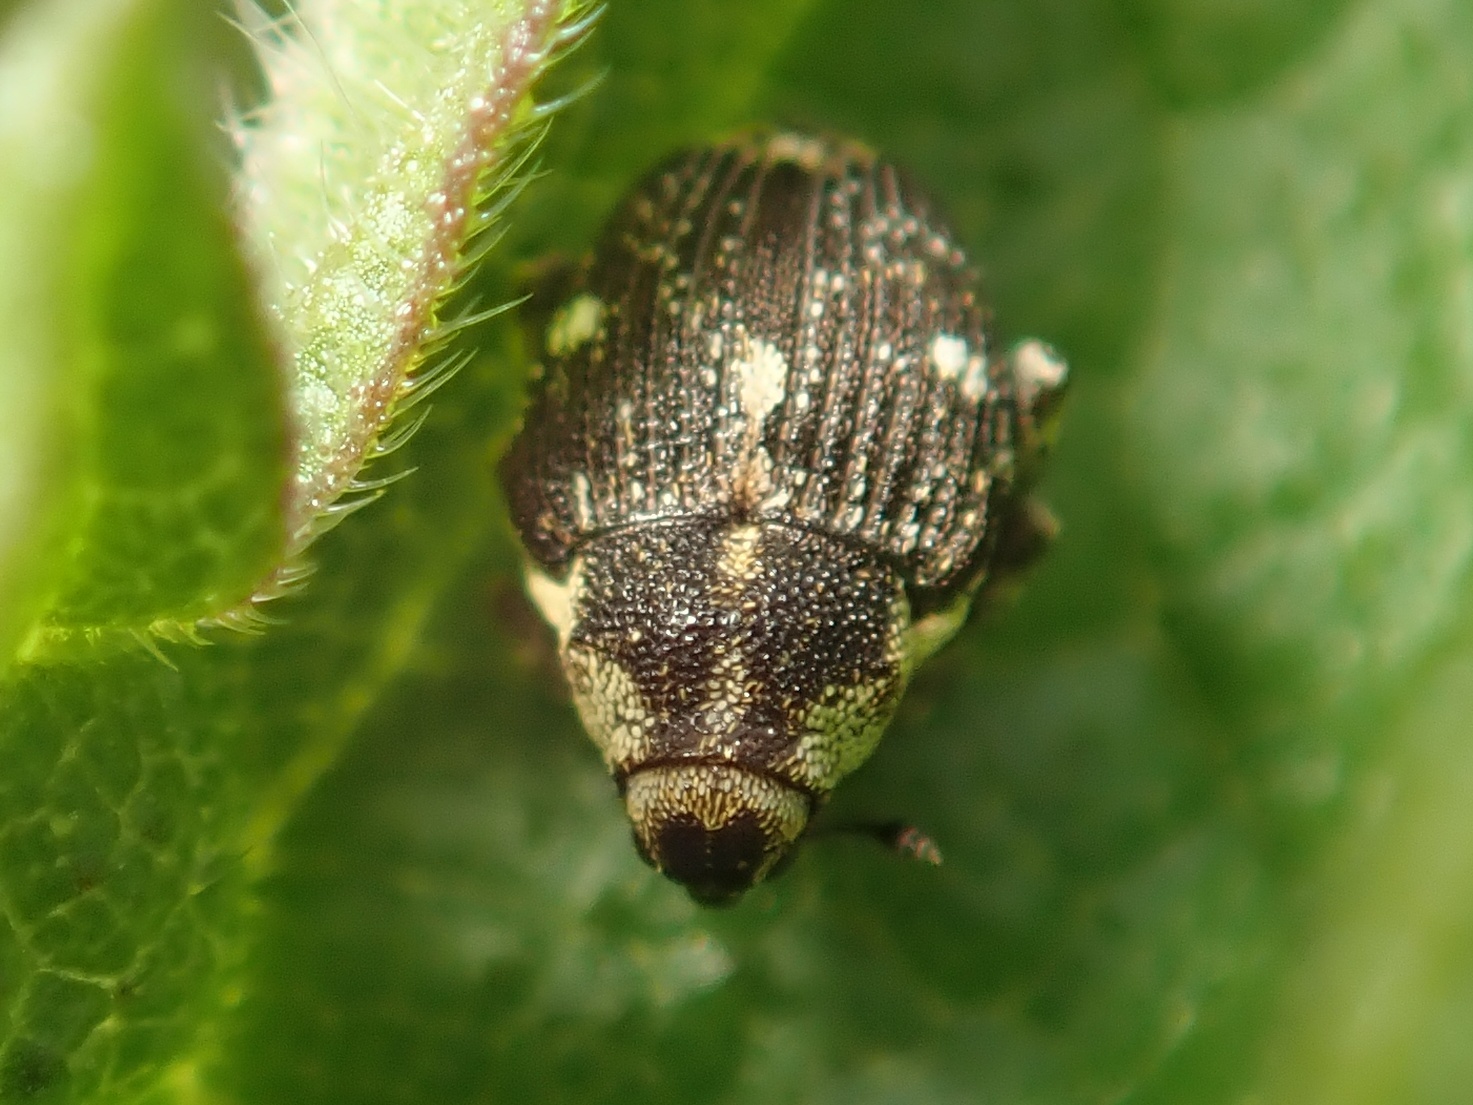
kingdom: Animalia
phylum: Arthropoda
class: Insecta
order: Coleoptera
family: Curculionidae
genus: Nedyus
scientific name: Nedyus quadrimaculatus
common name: Small nettle weevil
